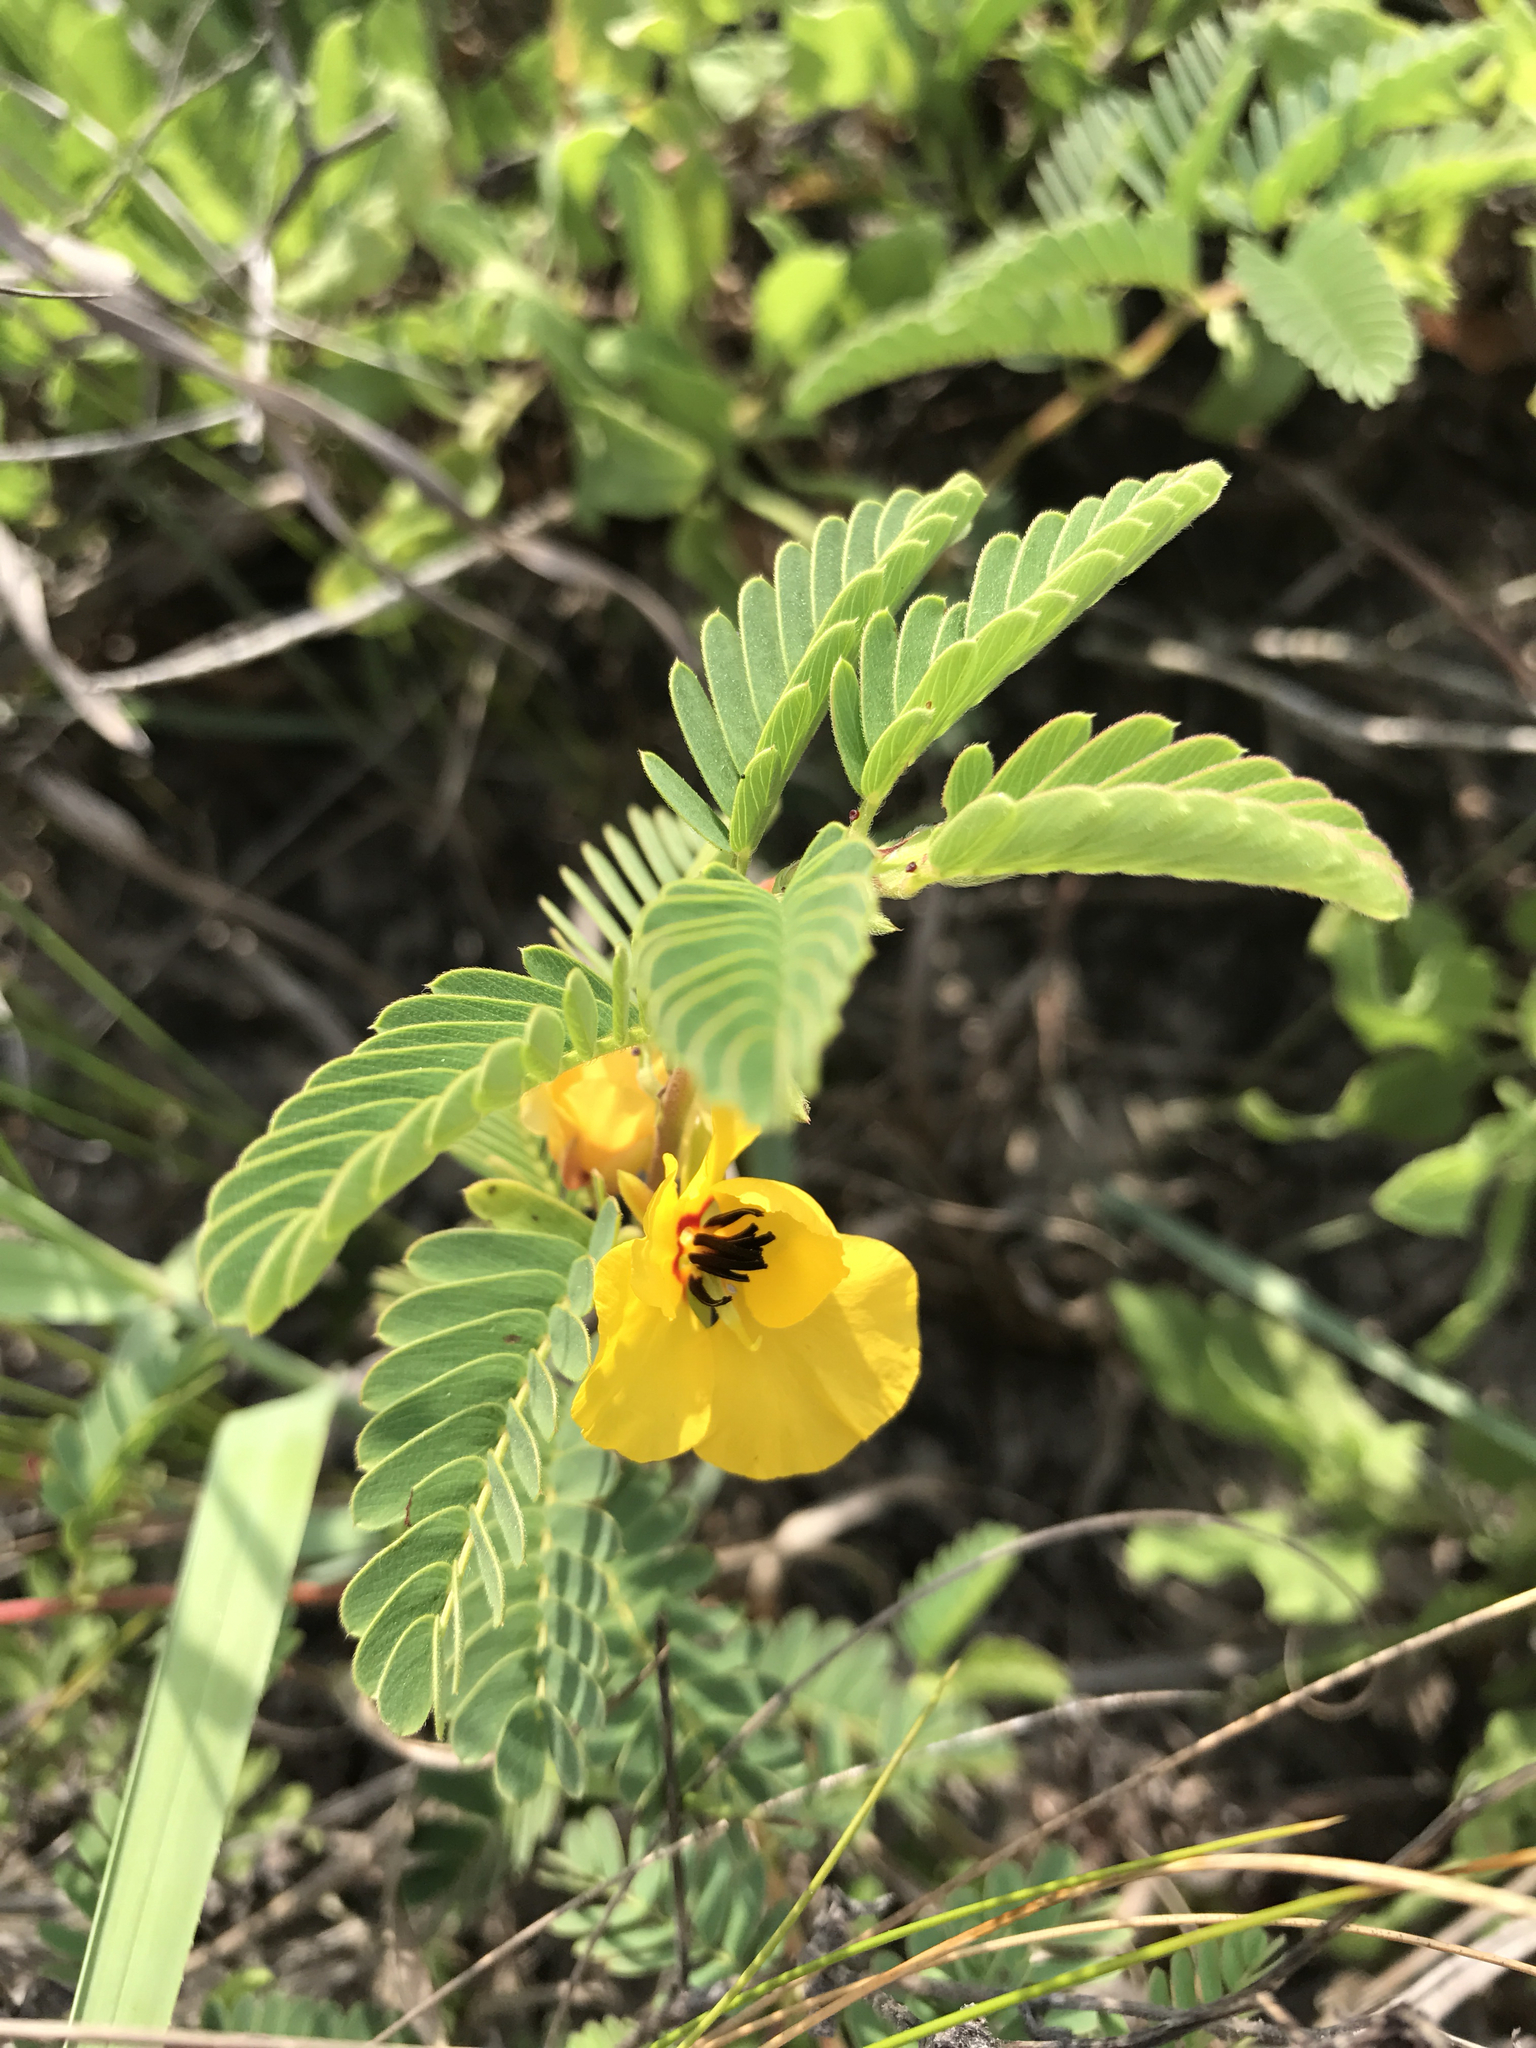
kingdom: Plantae
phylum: Tracheophyta
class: Magnoliopsida
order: Fabales
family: Fabaceae
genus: Chamaecrista
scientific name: Chamaecrista fasciculata
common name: Golden cassia
